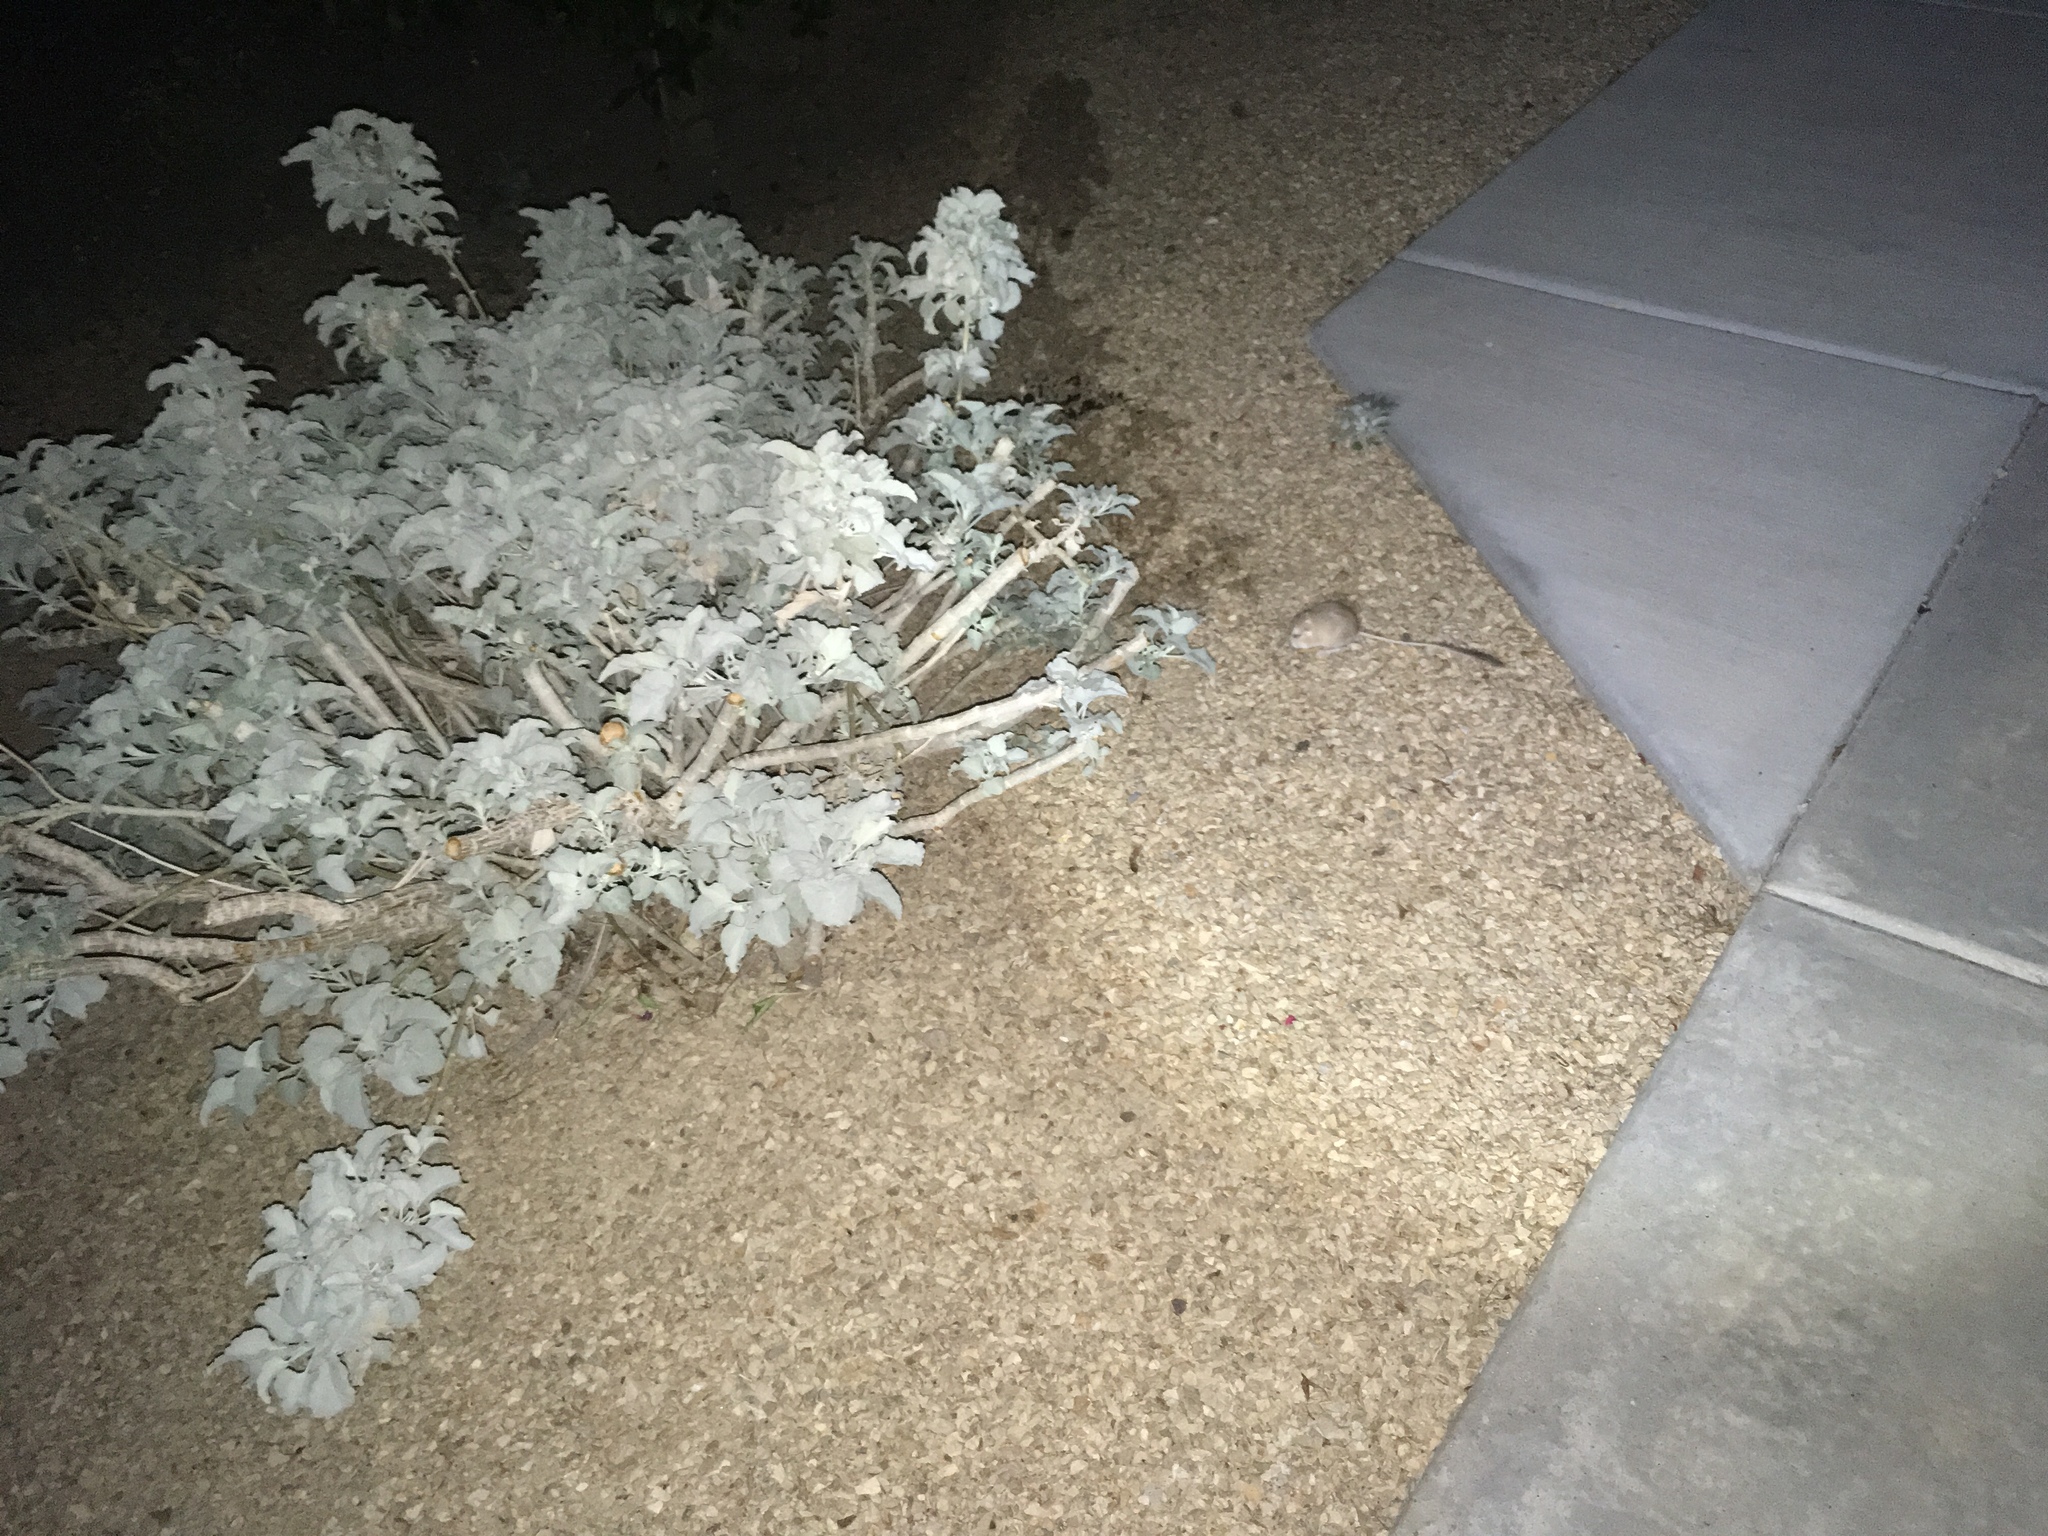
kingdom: Animalia
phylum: Chordata
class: Mammalia
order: Rodentia
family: Heteromyidae
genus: Dipodomys
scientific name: Dipodomys merriami
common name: Merriam's kangaroo rat
